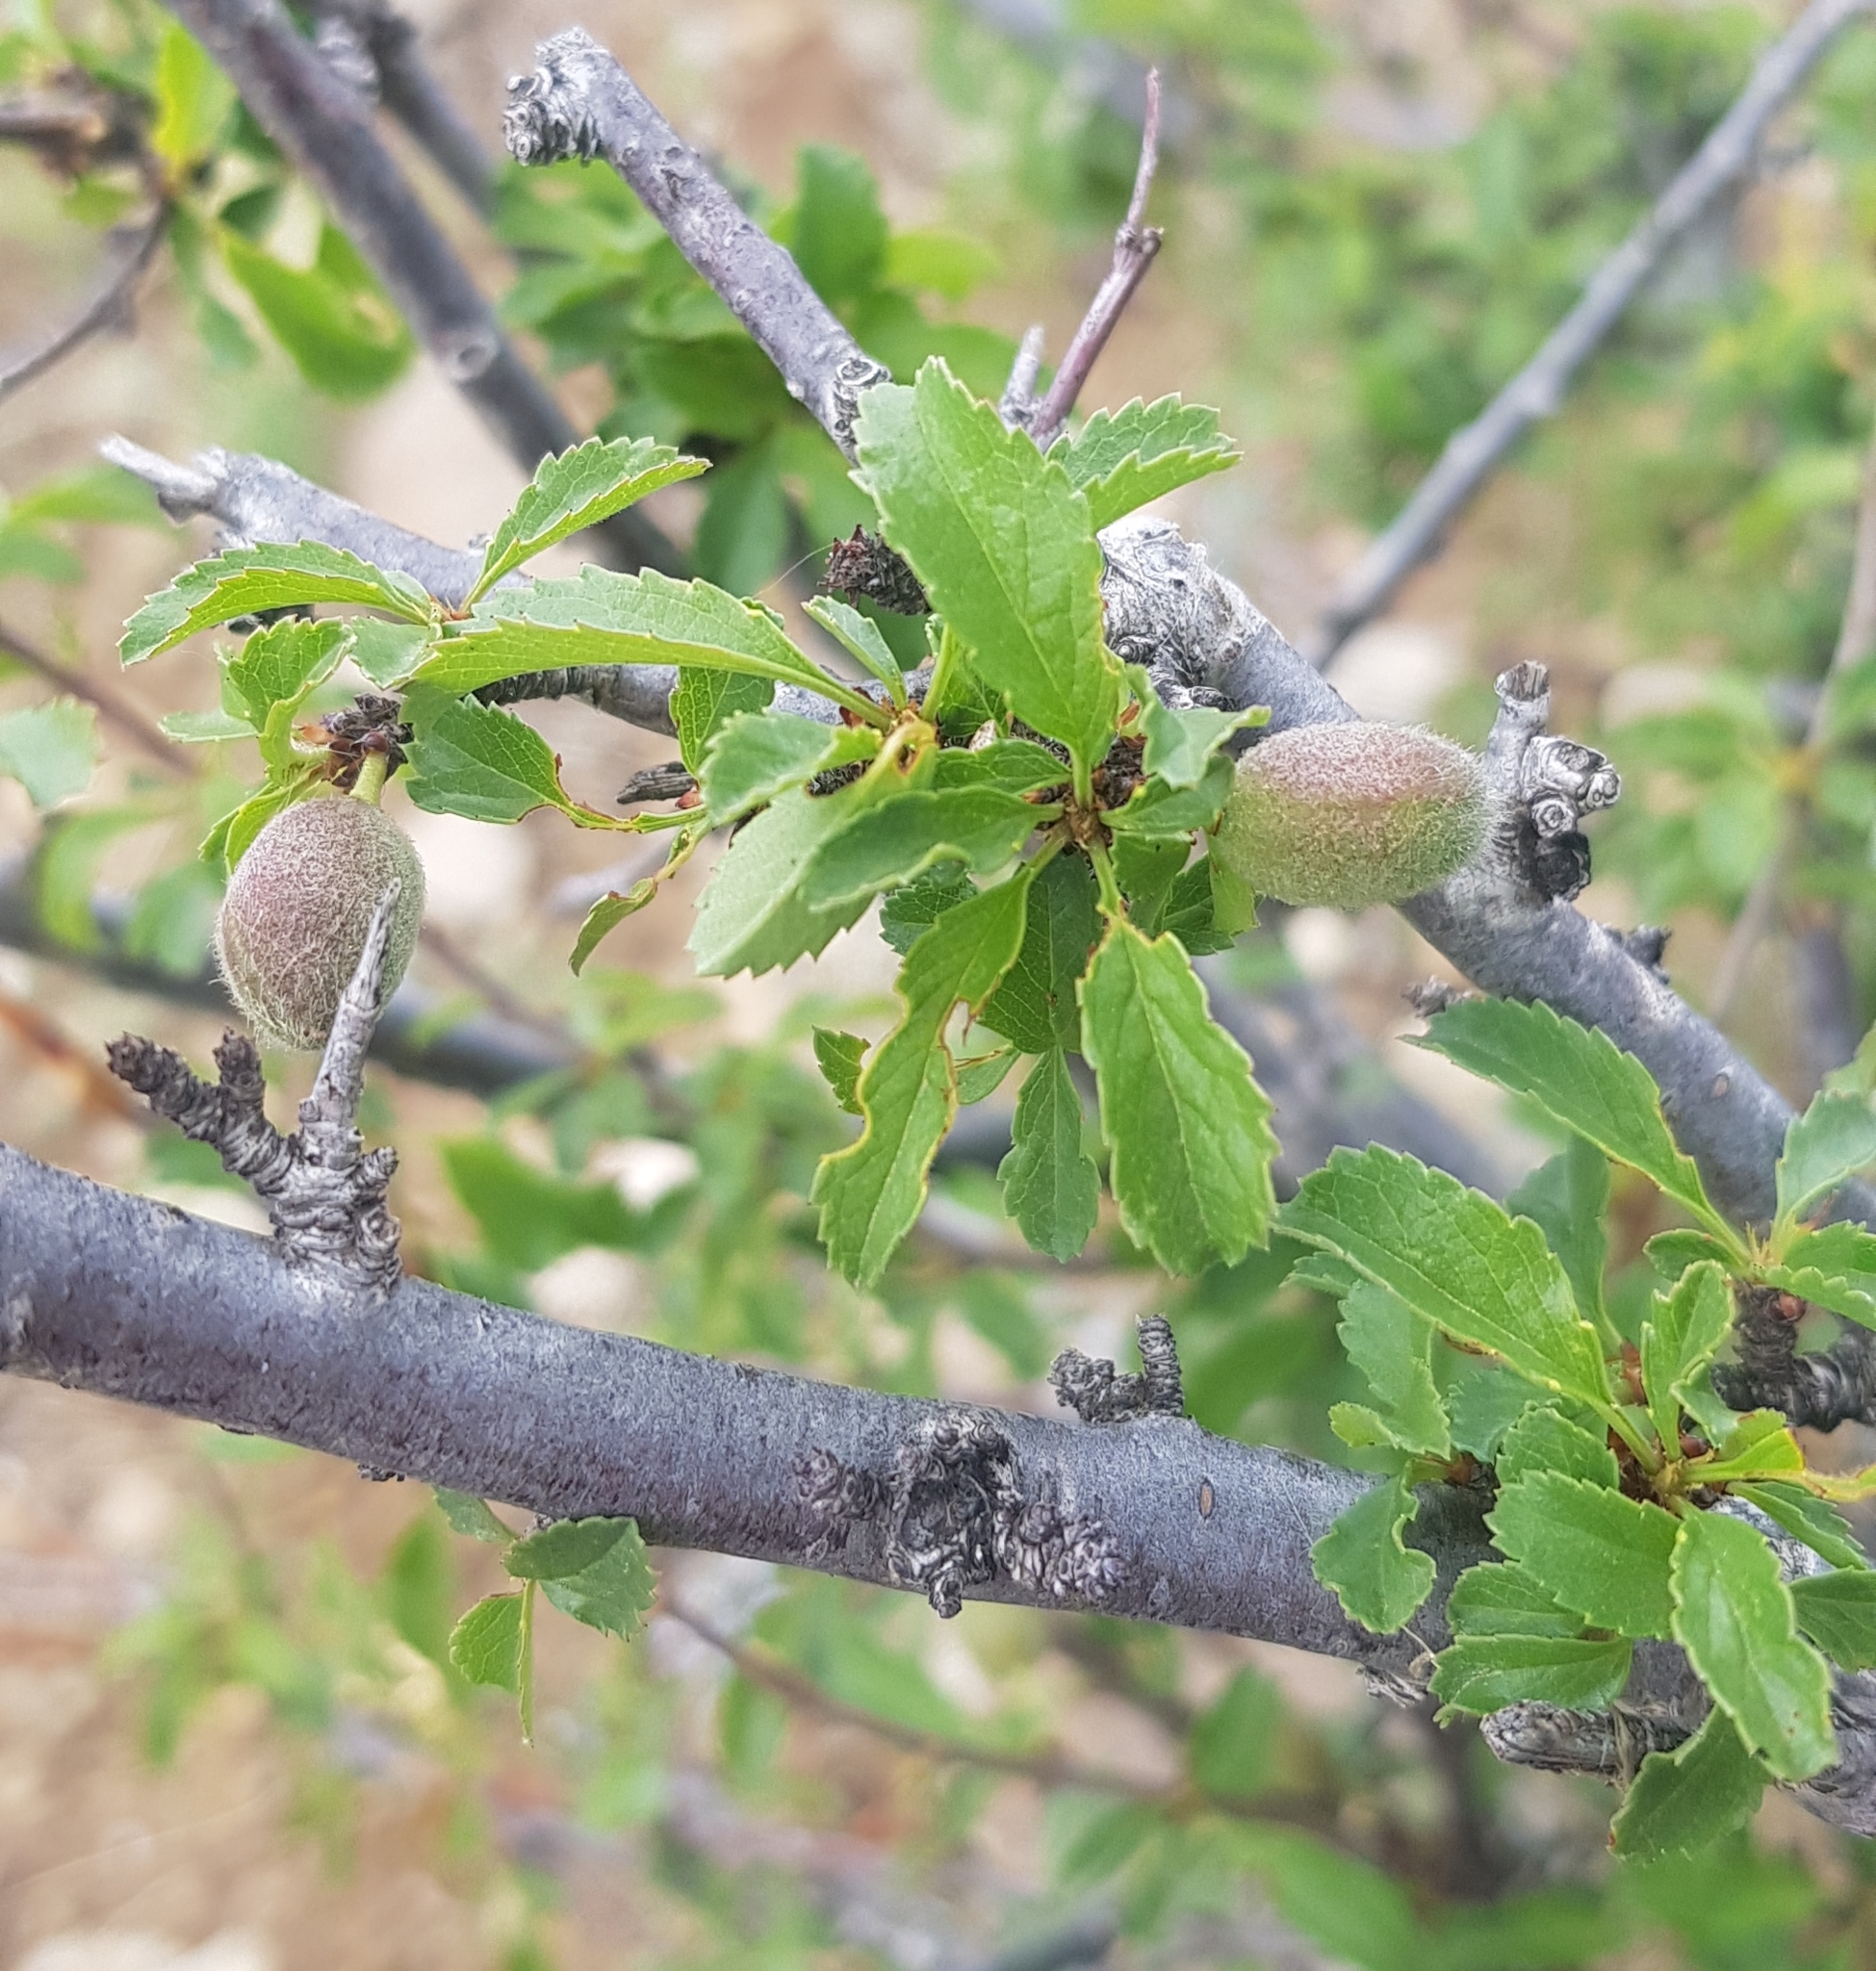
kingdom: Plantae
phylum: Tracheophyta
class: Magnoliopsida
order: Rosales
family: Rosaceae
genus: Prunus
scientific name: Prunus pedunculata
